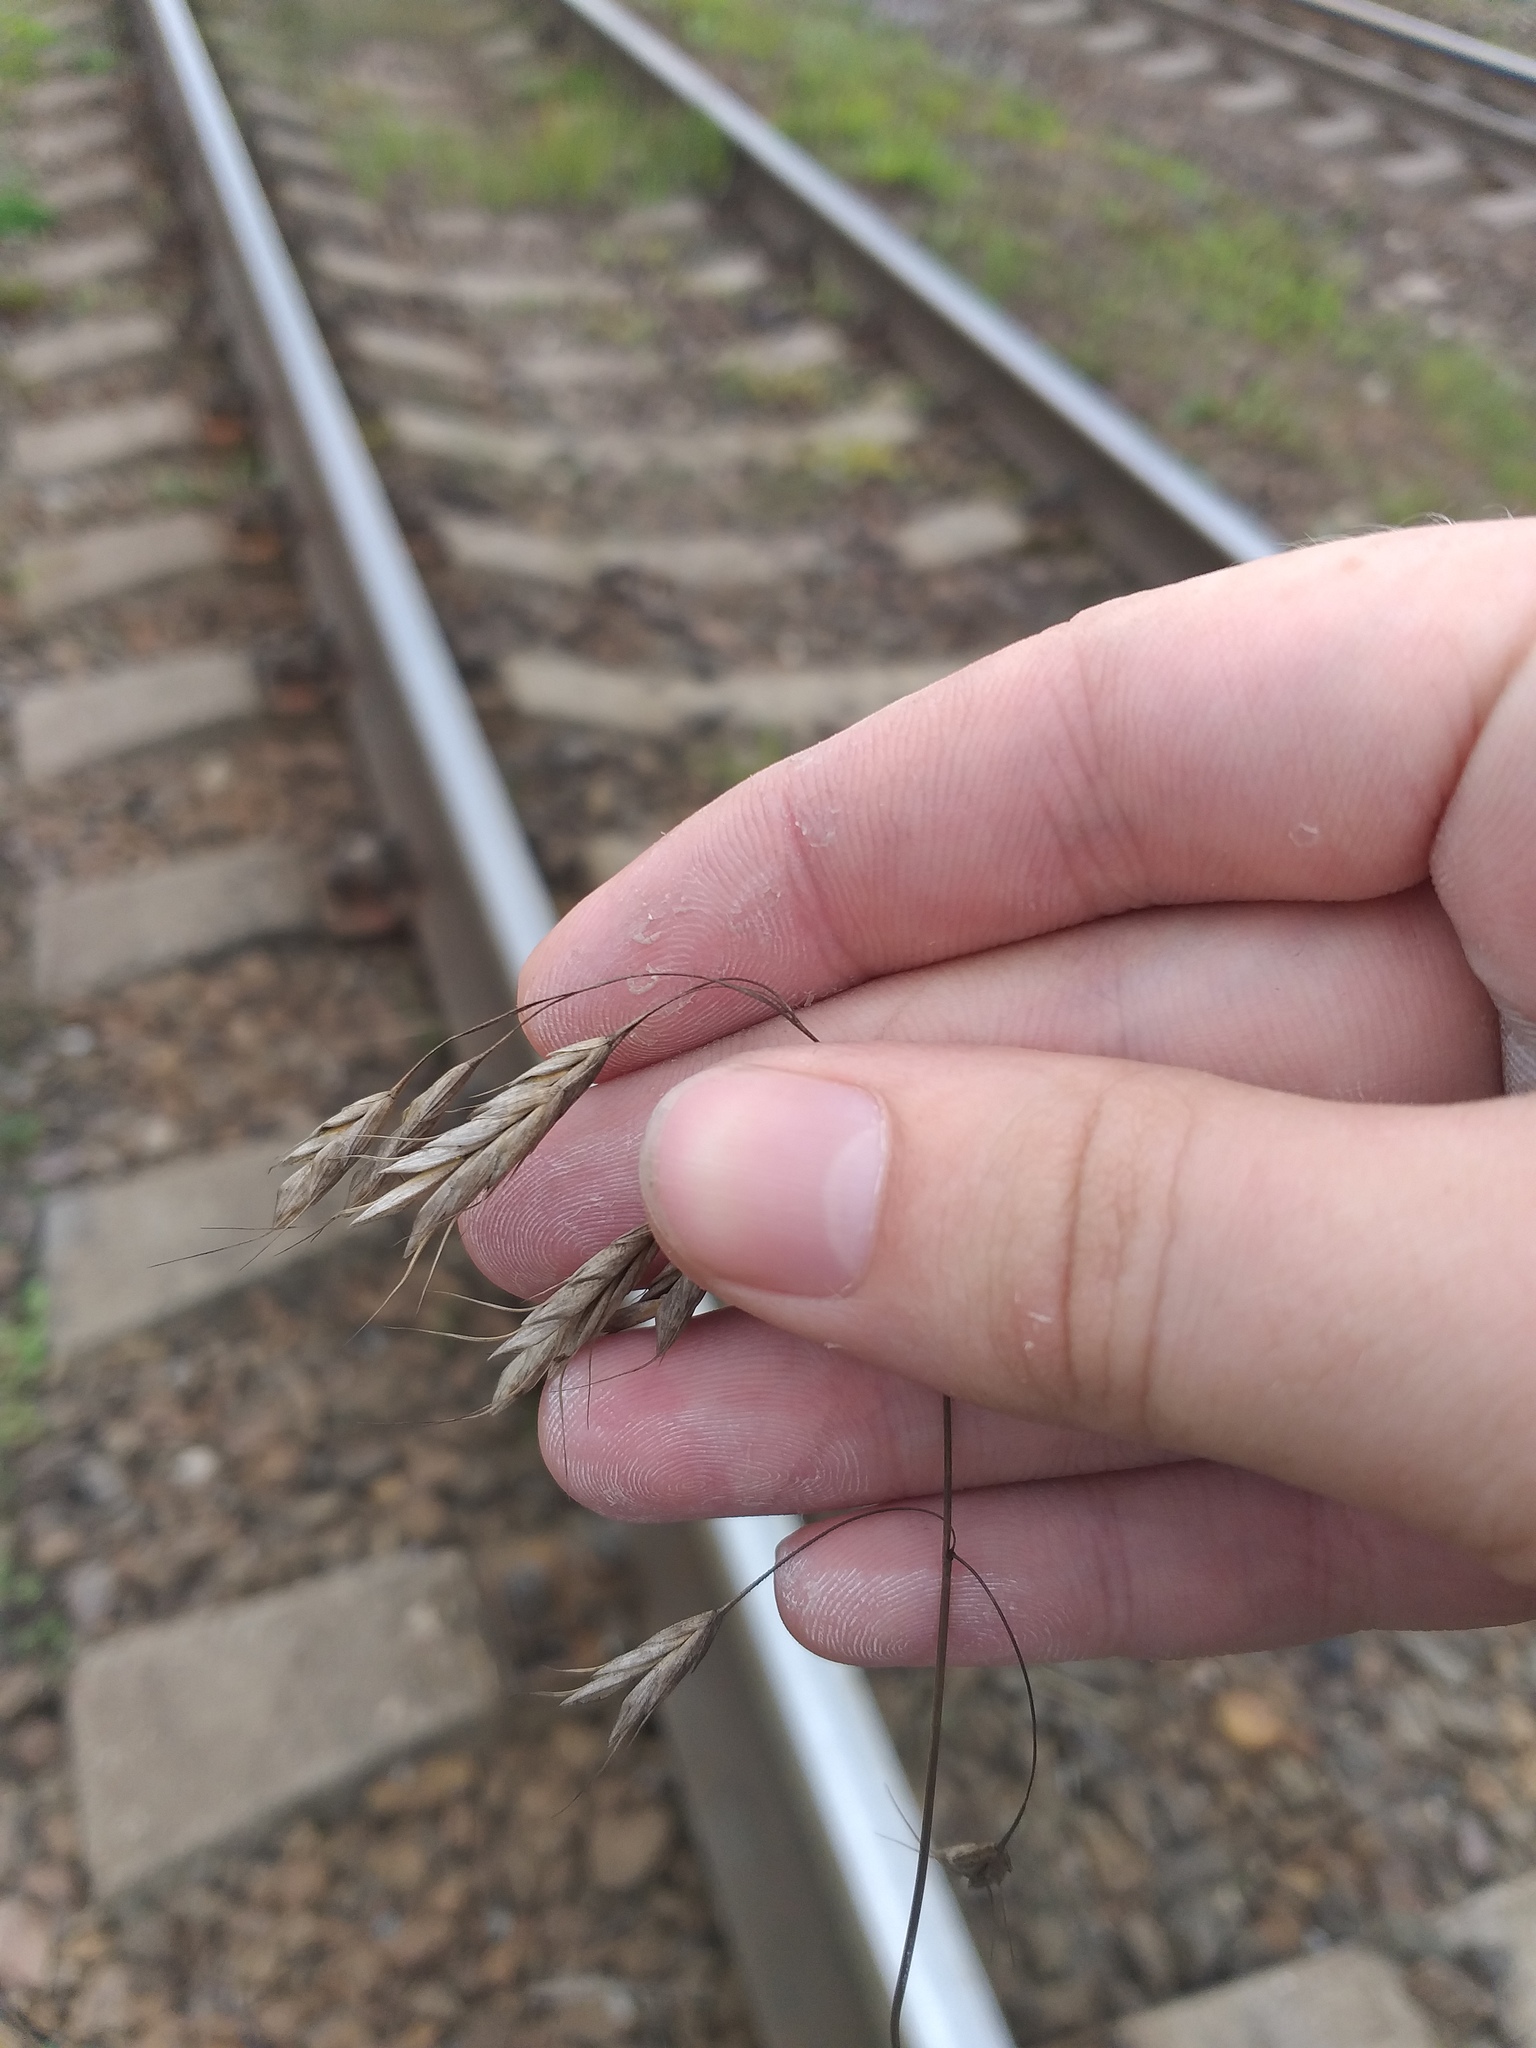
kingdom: Plantae
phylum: Tracheophyta
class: Liliopsida
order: Poales
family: Poaceae
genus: Bromus
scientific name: Bromus japonicus
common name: Japanese brome
